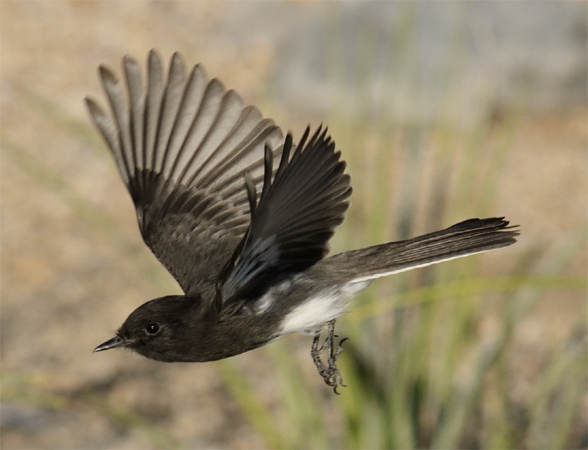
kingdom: Animalia
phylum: Chordata
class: Aves
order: Passeriformes
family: Tyrannidae
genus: Sayornis
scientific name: Sayornis nigricans
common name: Black phoebe
